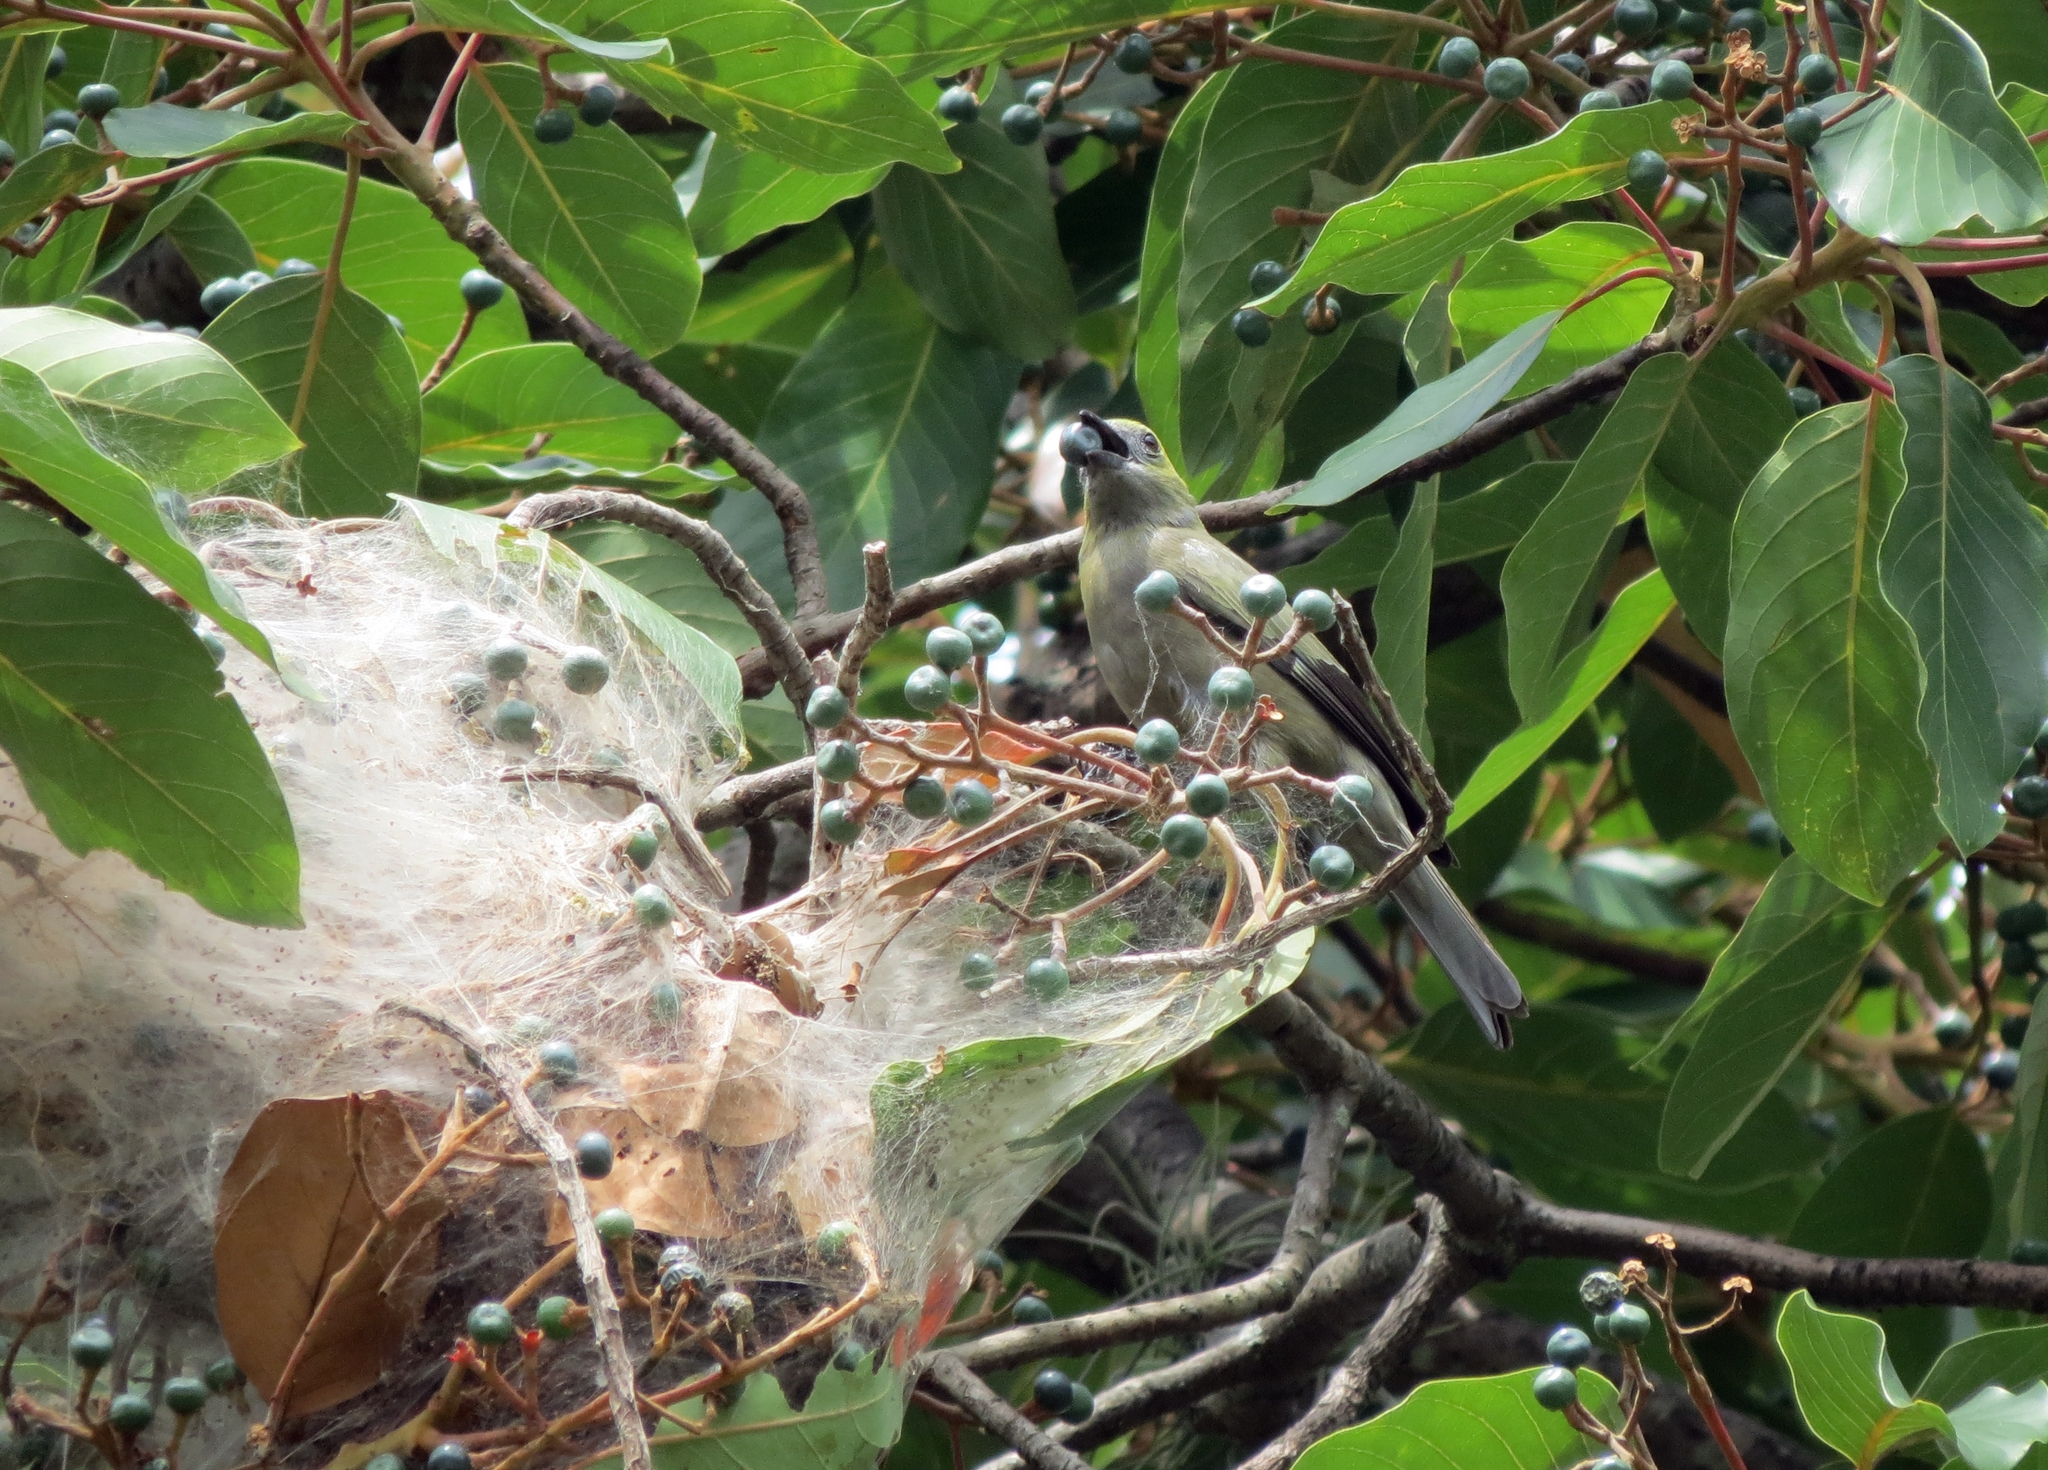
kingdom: Animalia
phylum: Chordata
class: Aves
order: Passeriformes
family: Thraupidae
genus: Thraupis
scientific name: Thraupis palmarum
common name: Palm tanager
